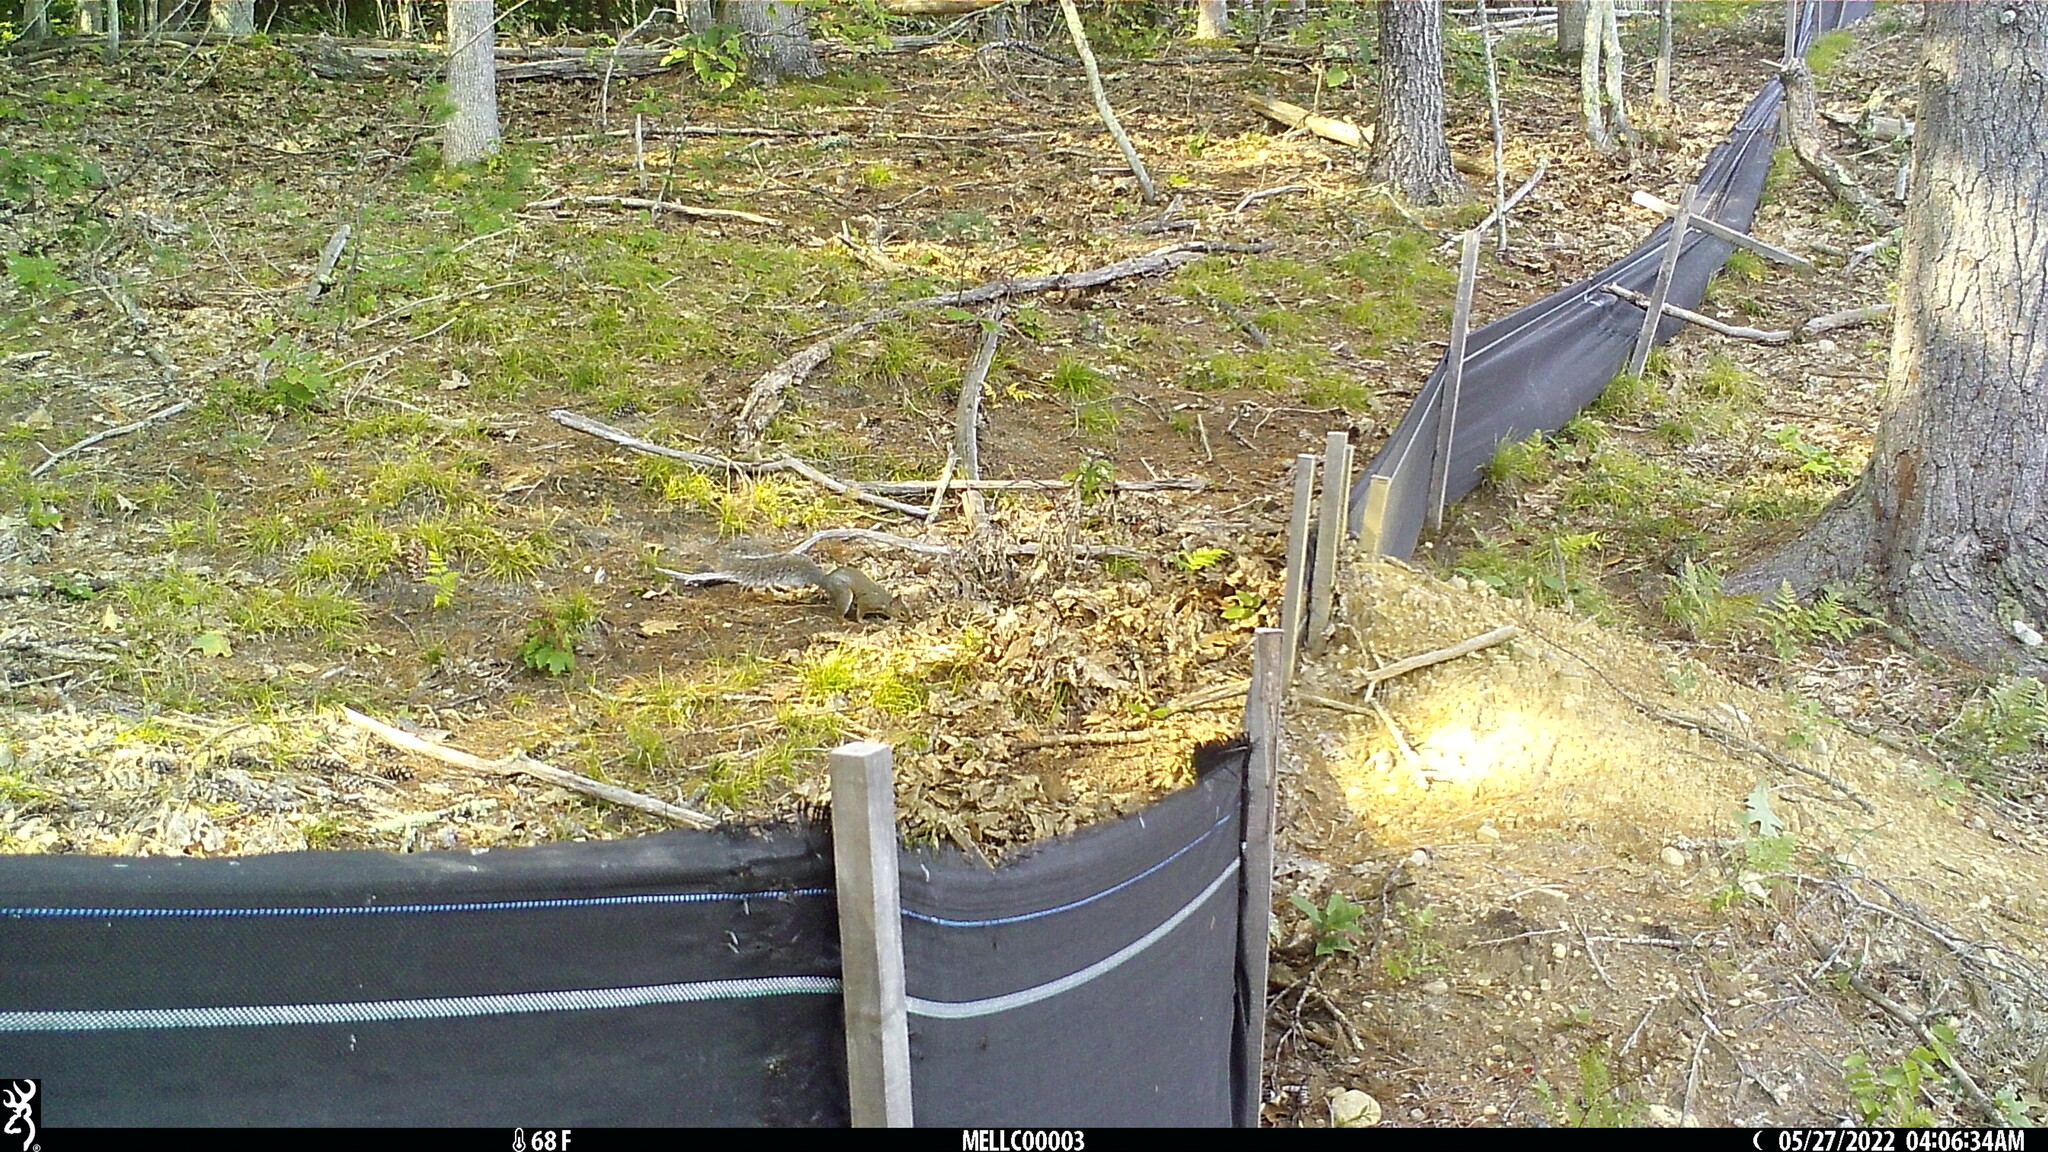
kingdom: Animalia
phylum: Chordata
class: Mammalia
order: Rodentia
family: Sciuridae
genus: Sciurus
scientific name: Sciurus carolinensis
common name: Eastern gray squirrel
